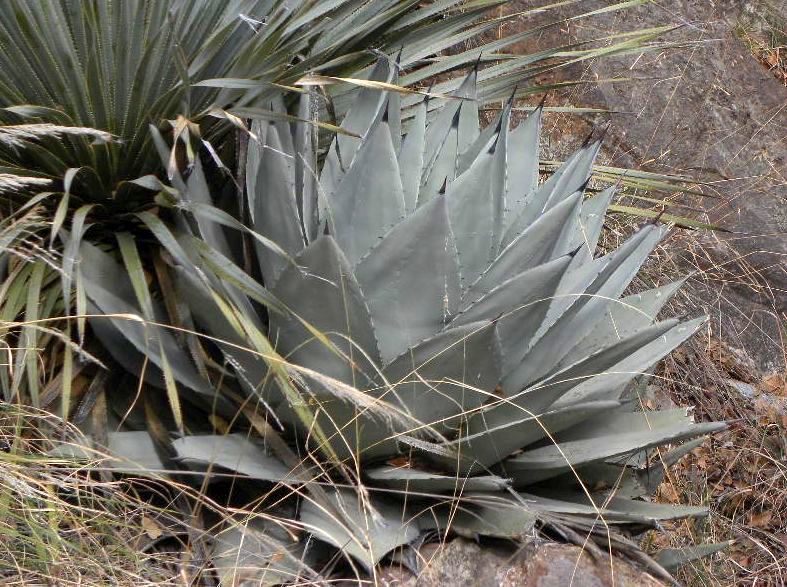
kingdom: Plantae
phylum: Tracheophyta
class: Liliopsida
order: Asparagales
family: Asparagaceae
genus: Agave
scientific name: Agave parryi
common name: Parry's agave
